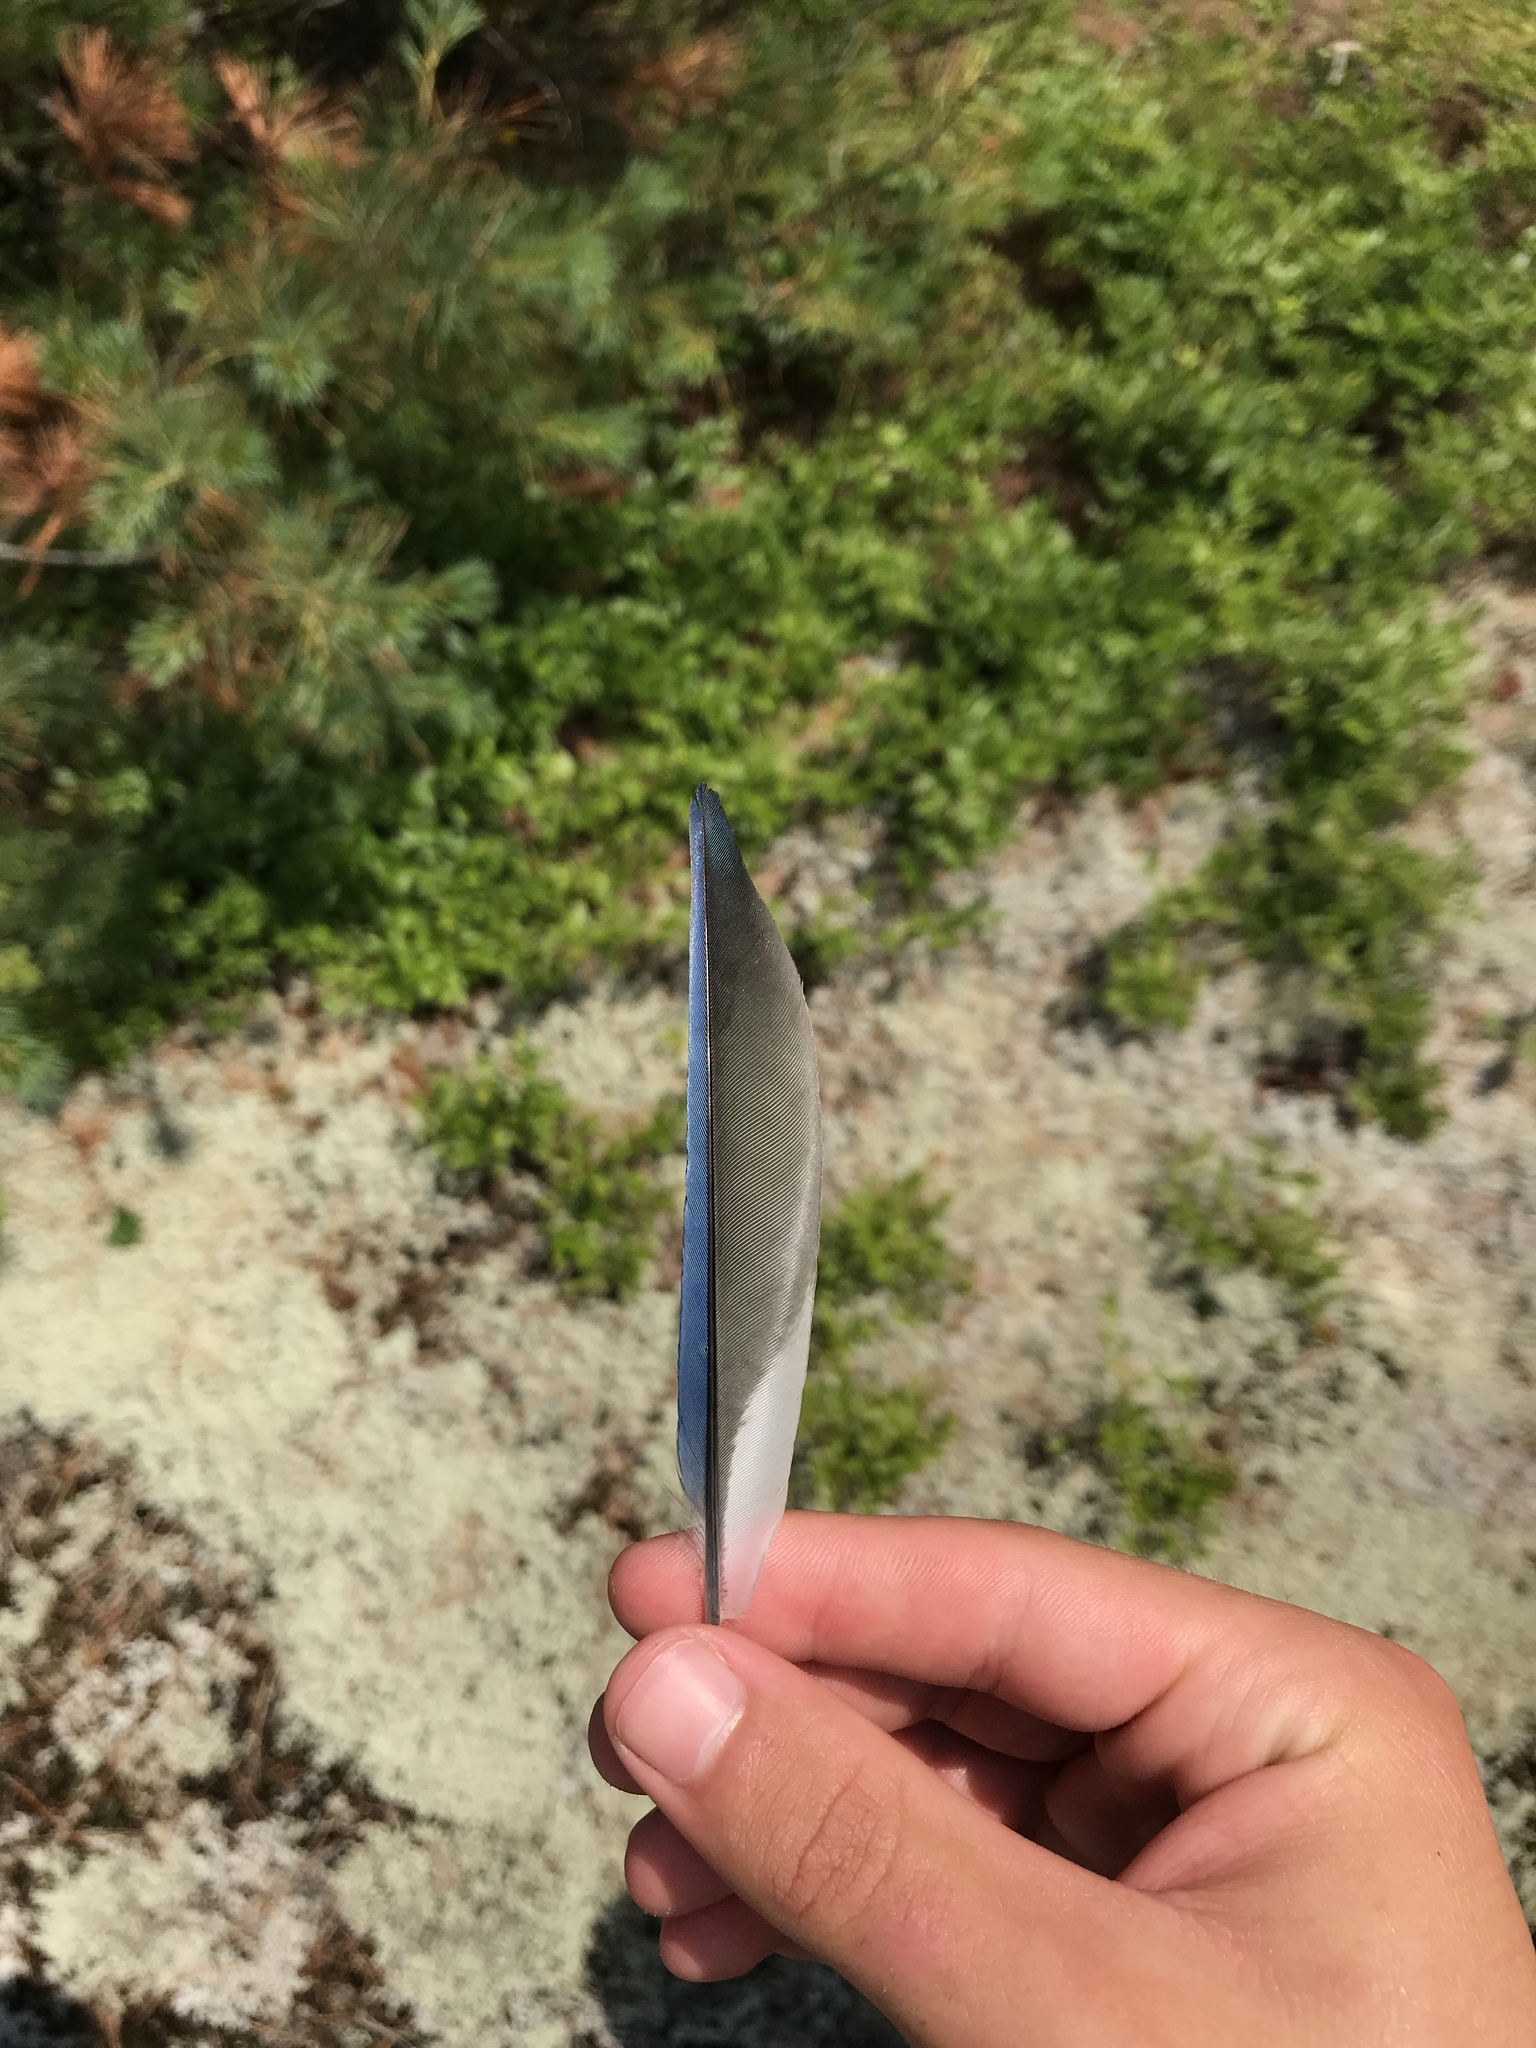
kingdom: Animalia
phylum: Chordata
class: Aves
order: Passeriformes
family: Corvidae
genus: Cyanocitta
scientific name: Cyanocitta cristata
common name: Blue jay
